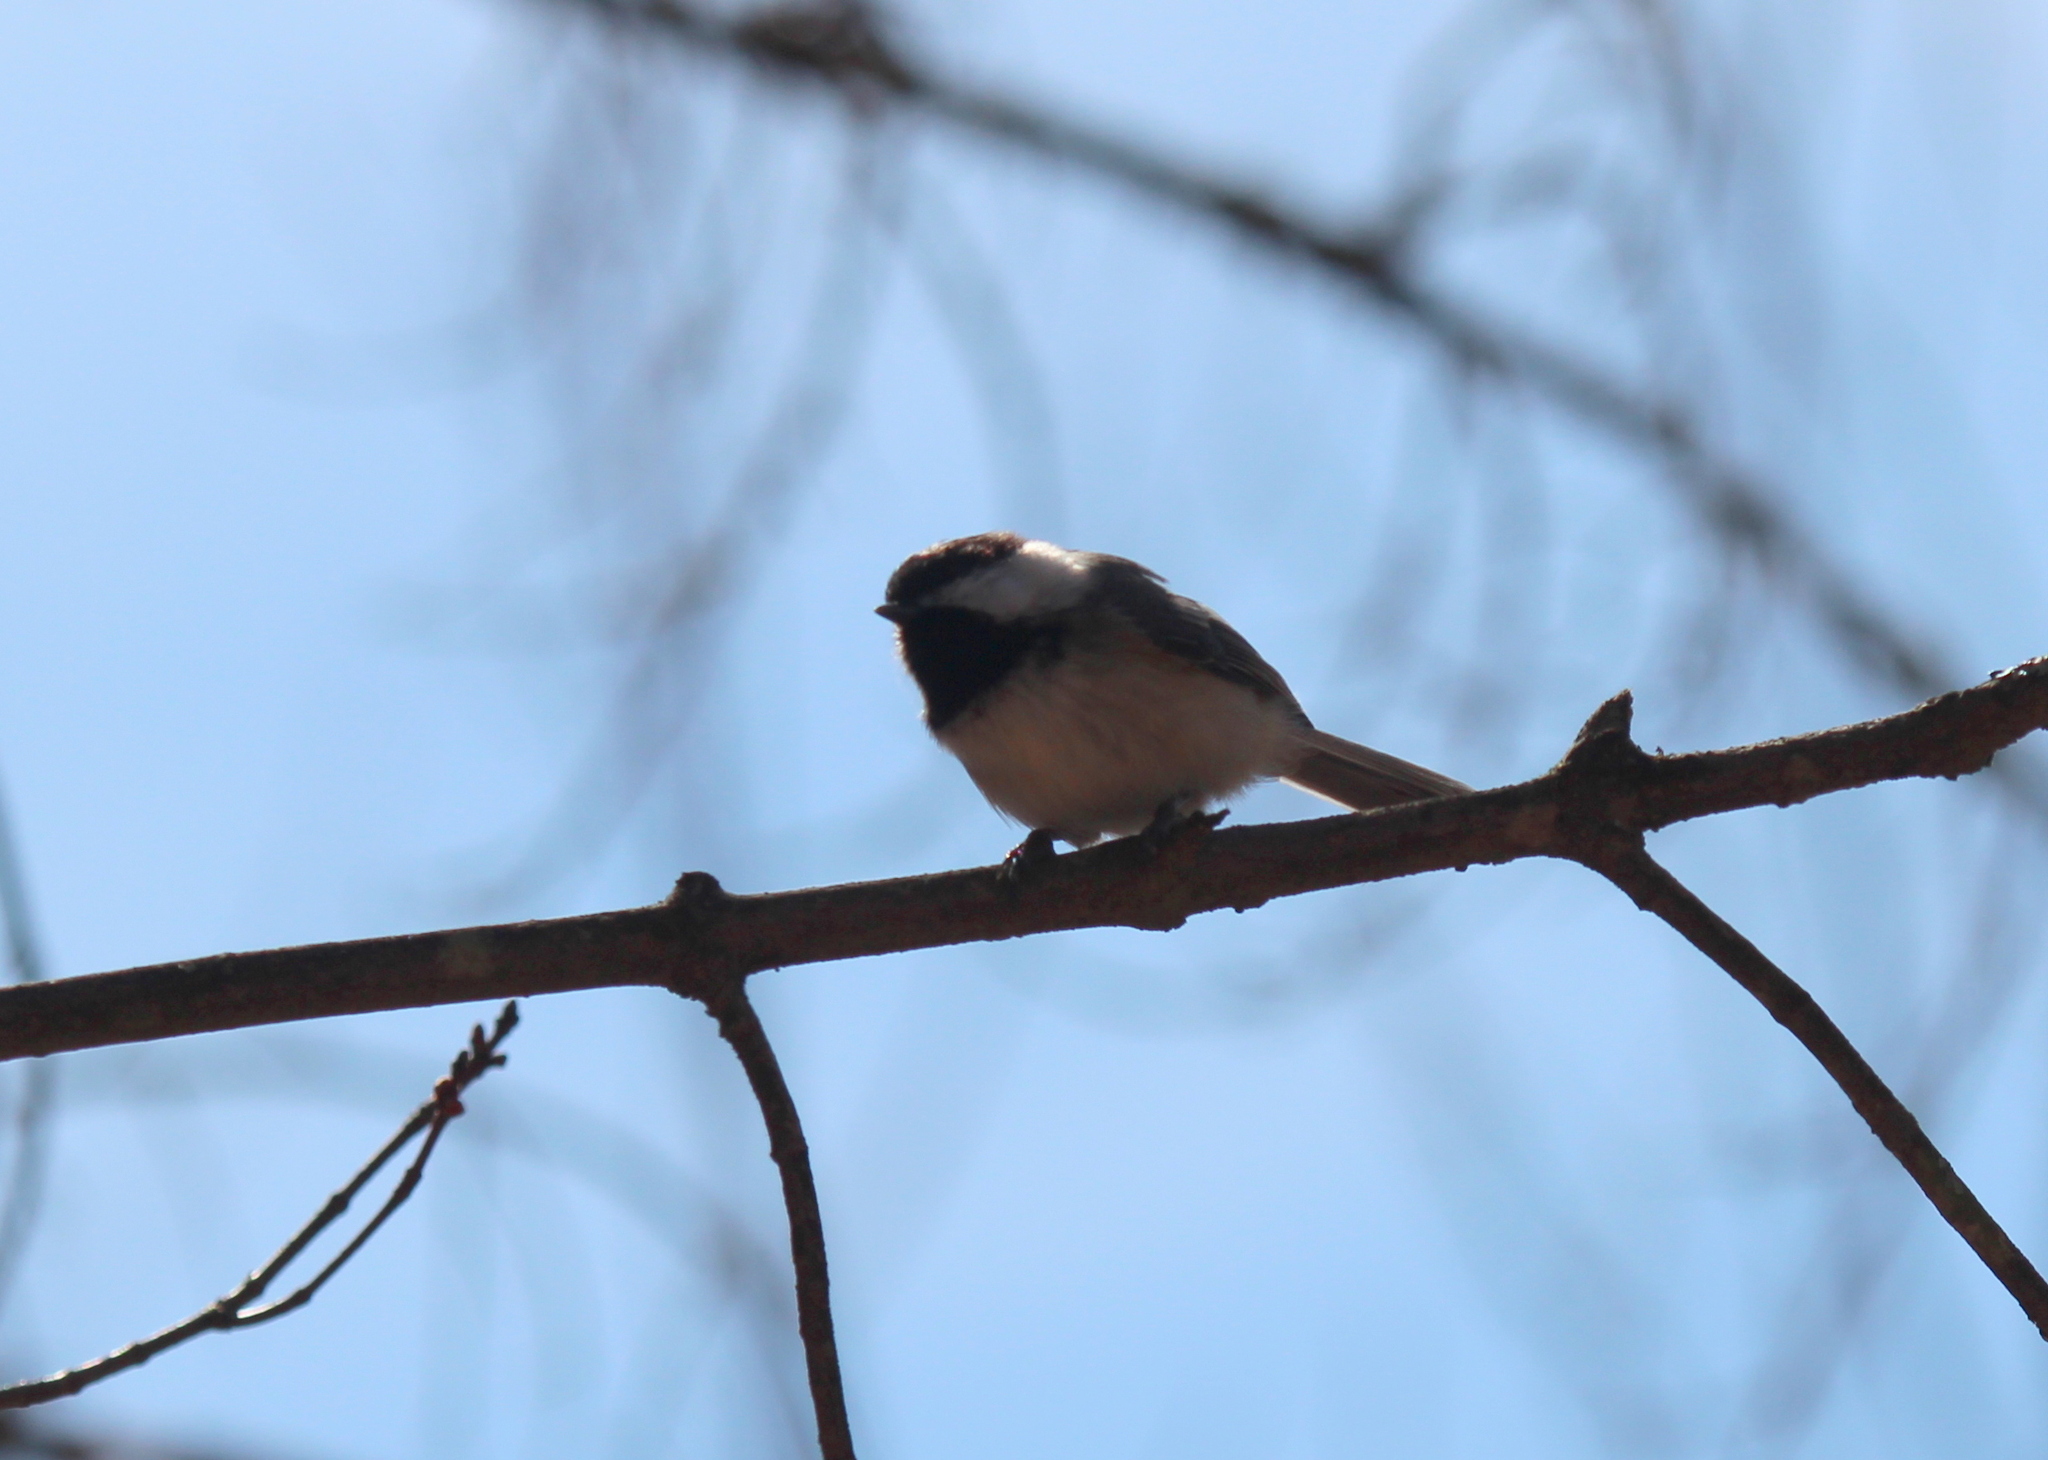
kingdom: Animalia
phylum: Chordata
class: Aves
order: Passeriformes
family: Paridae
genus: Poecile
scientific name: Poecile atricapillus
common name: Black-capped chickadee
